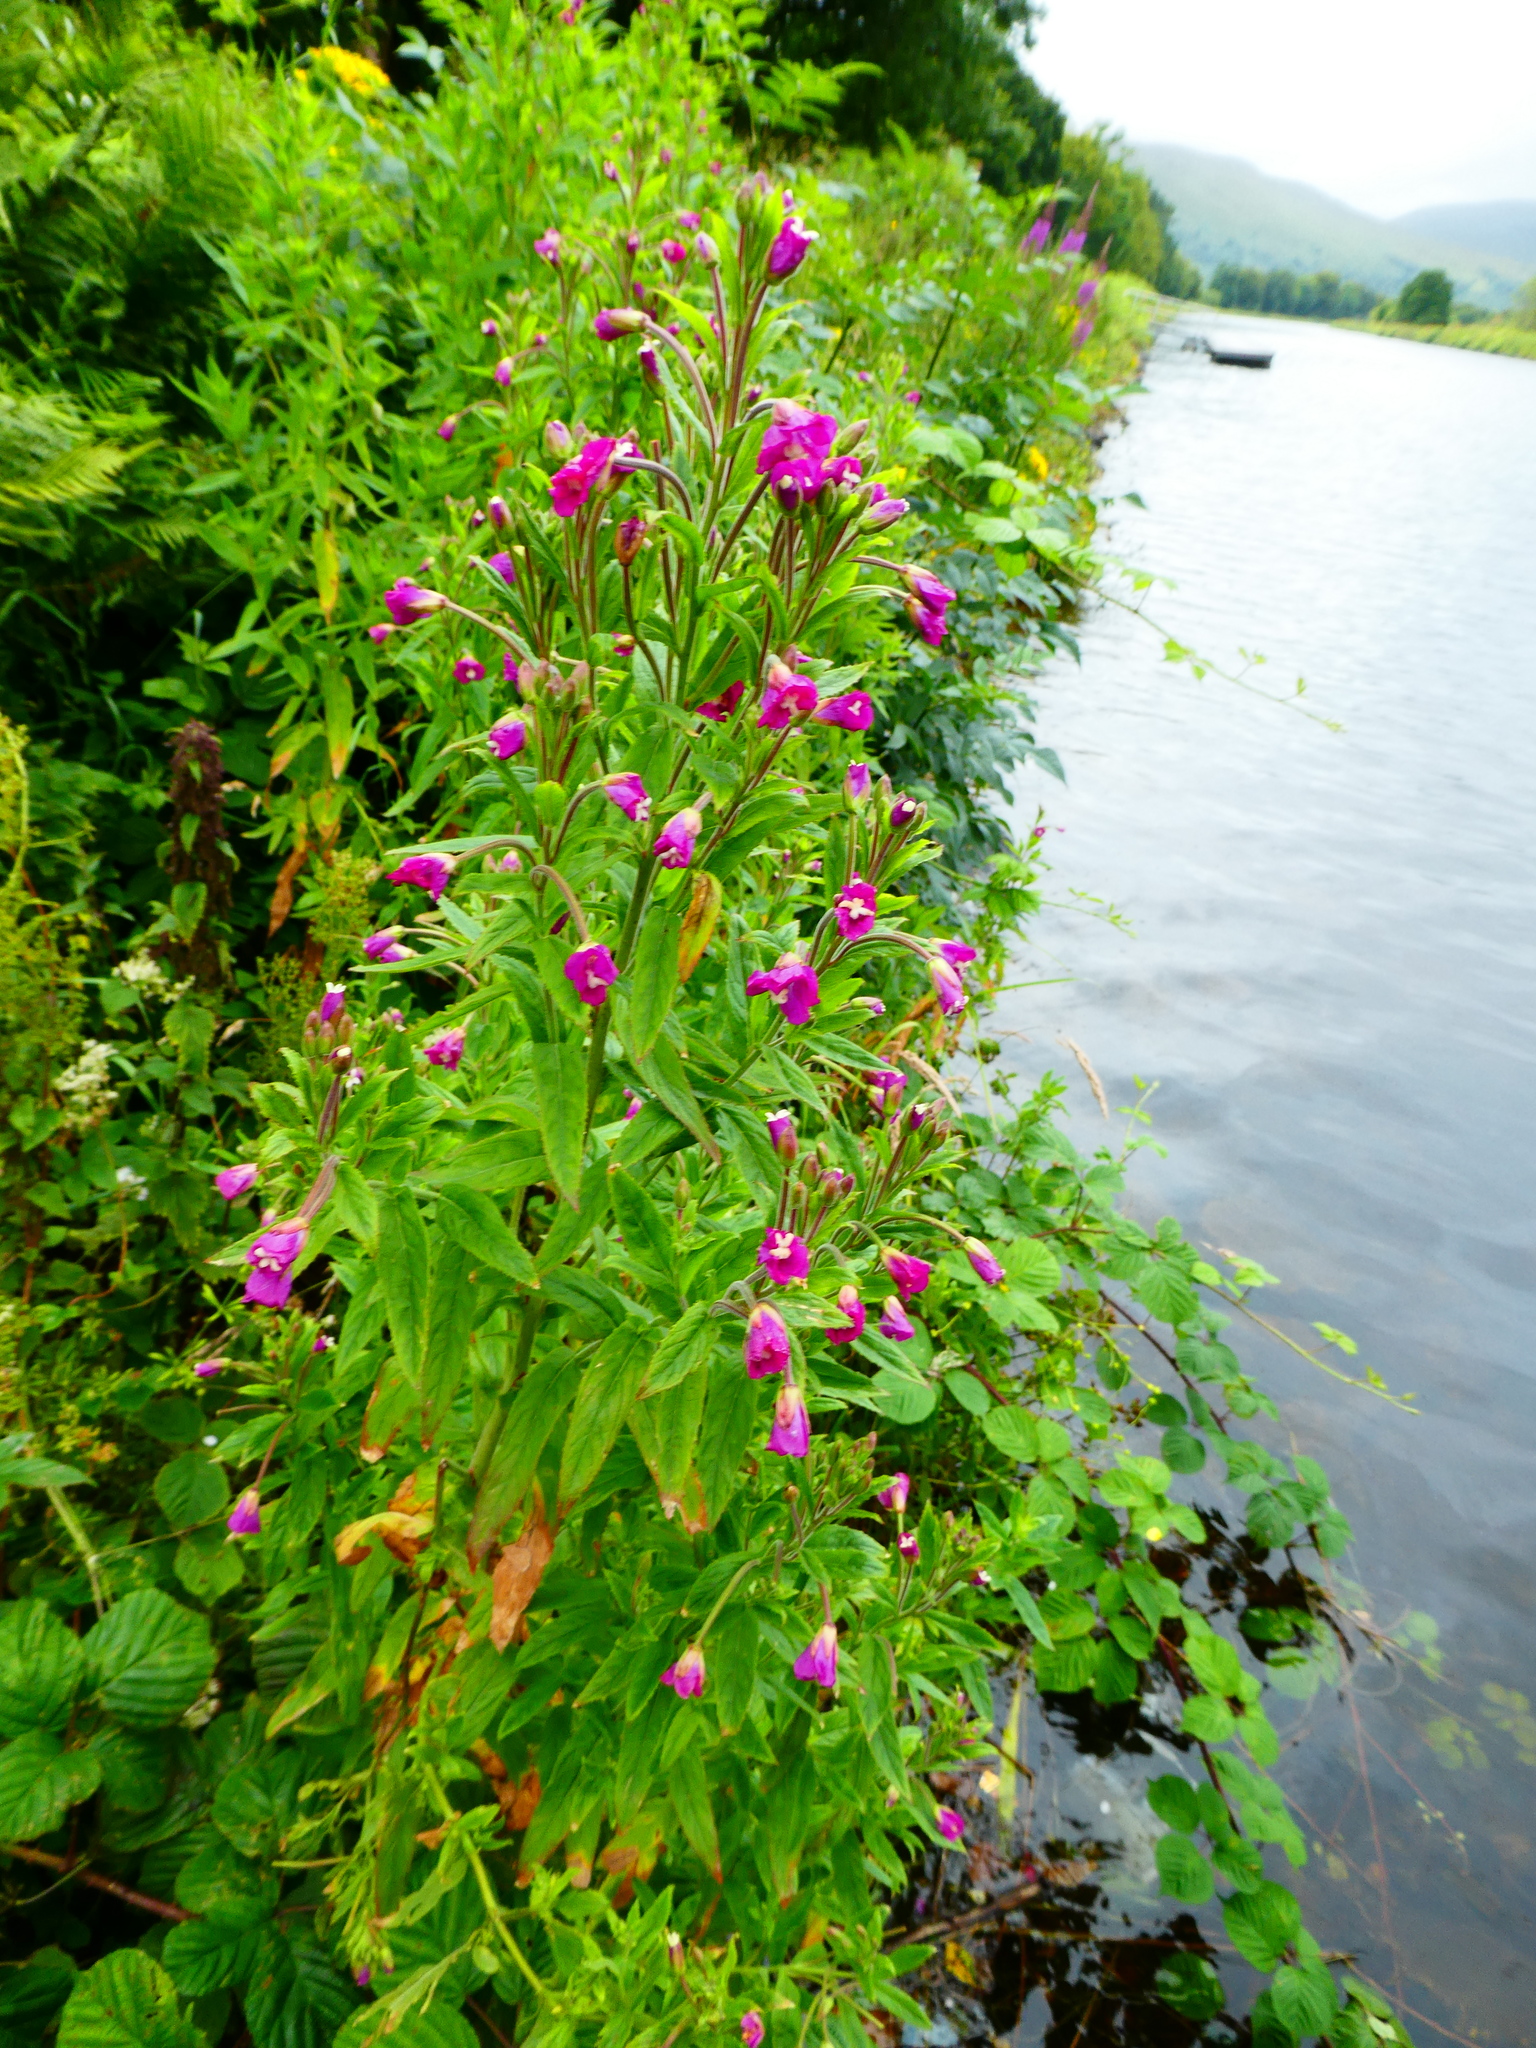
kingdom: Plantae
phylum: Tracheophyta
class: Magnoliopsida
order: Myrtales
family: Onagraceae
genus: Epilobium
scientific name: Epilobium hirsutum
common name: Great willowherb
